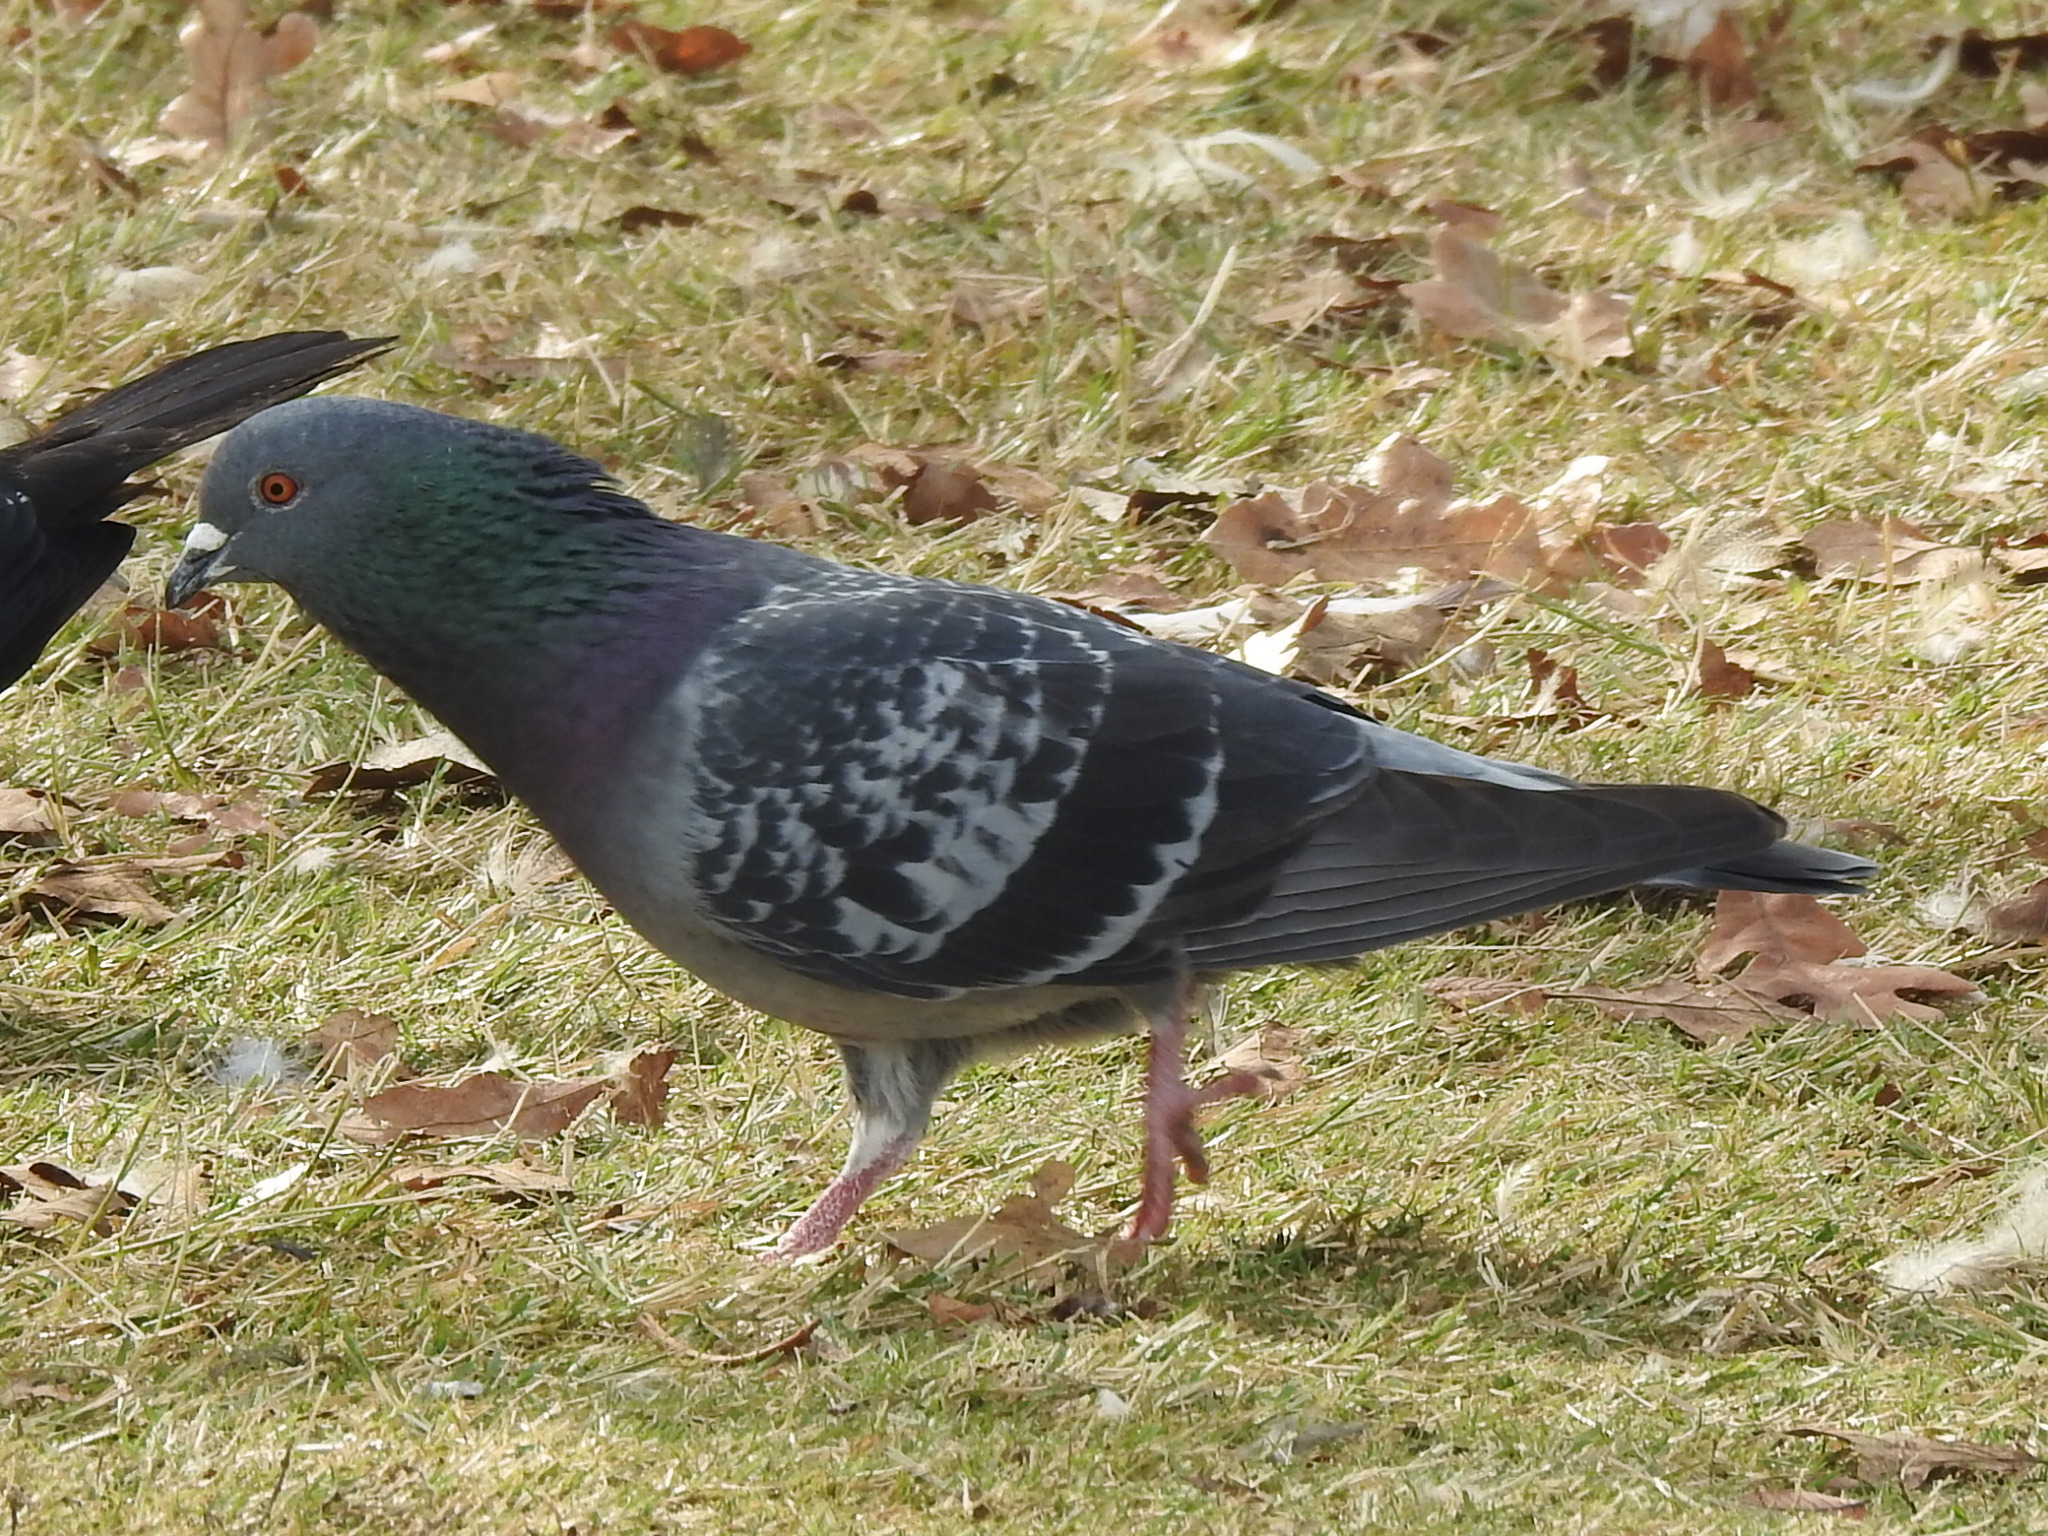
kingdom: Animalia
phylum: Chordata
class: Aves
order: Columbiformes
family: Columbidae
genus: Columba
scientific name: Columba livia
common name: Rock pigeon
